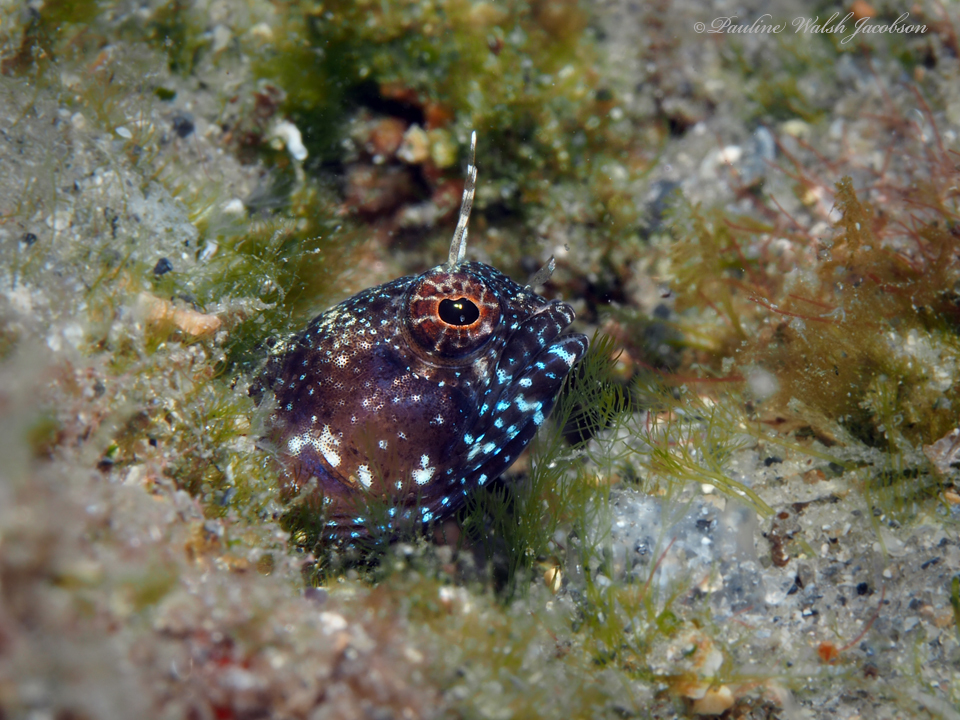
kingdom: Animalia
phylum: Chordata
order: Perciformes
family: Chaenopsidae
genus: Emblemaria
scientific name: Emblemaria pandionis
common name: Sailfin blenny
